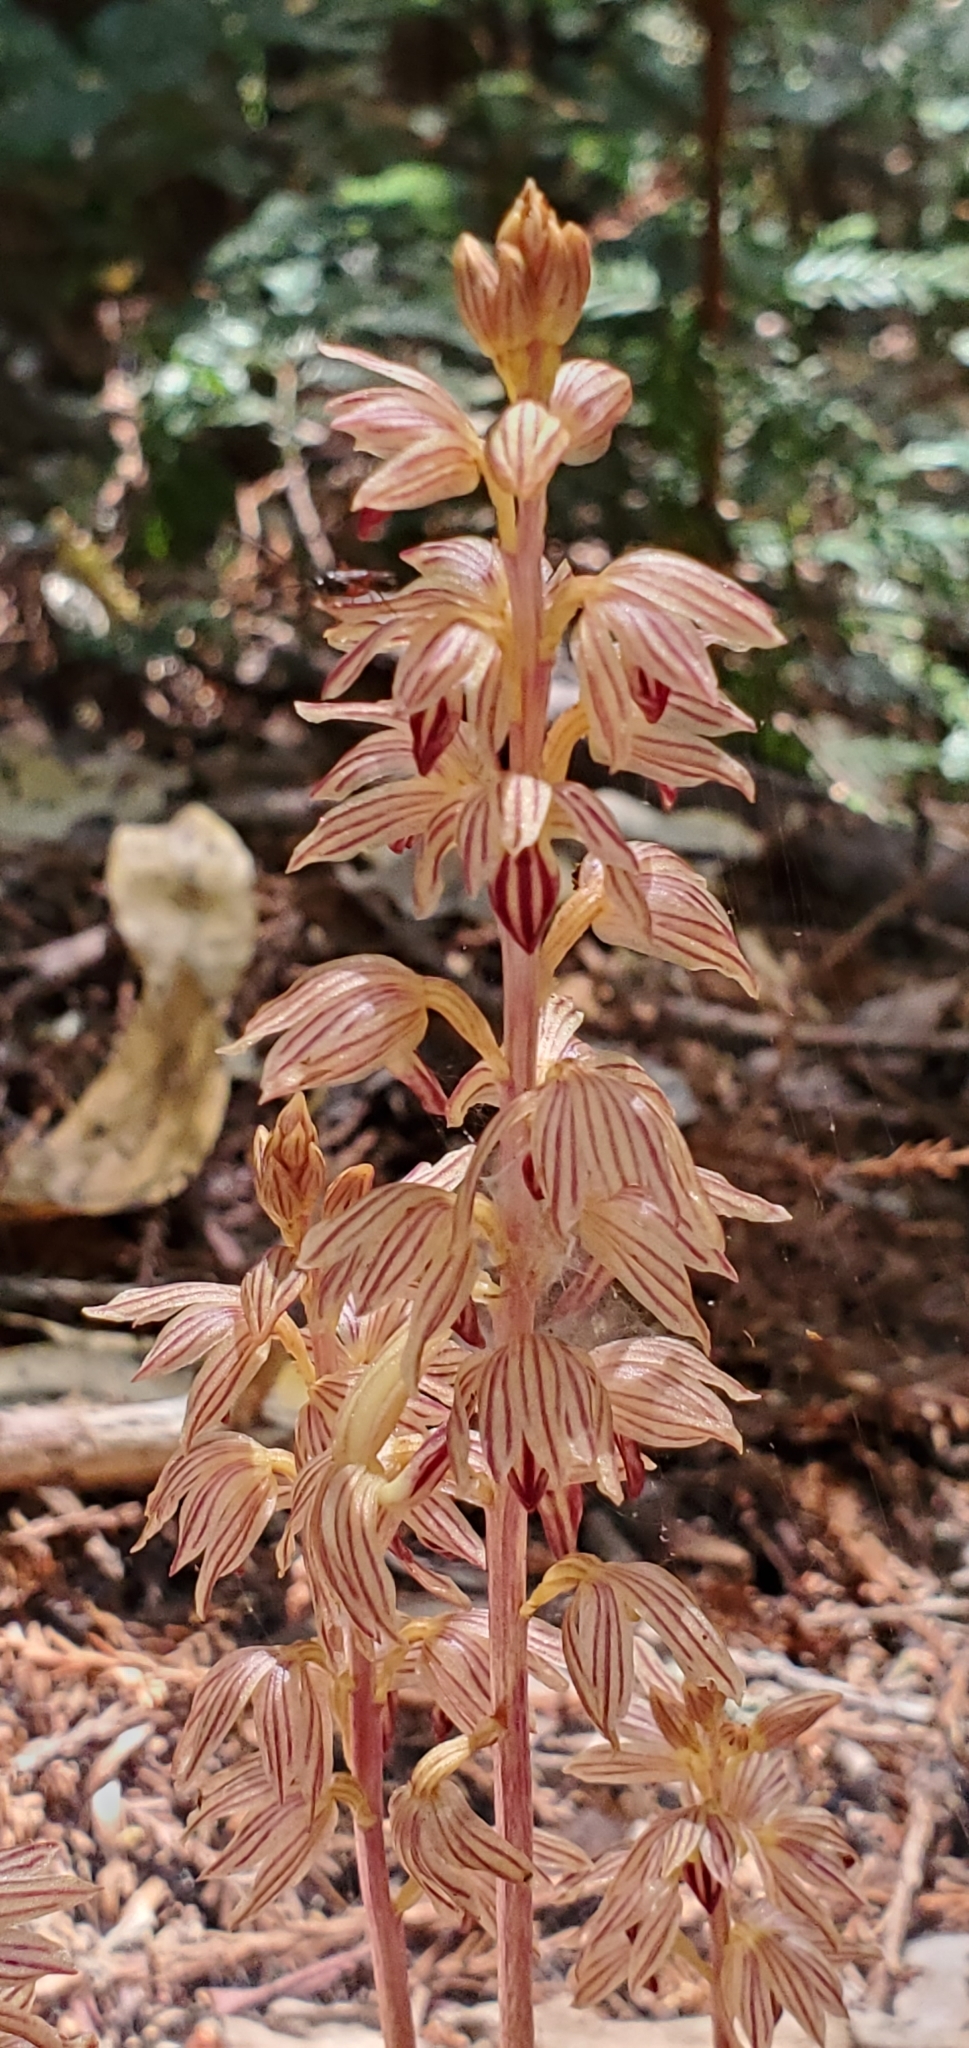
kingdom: Plantae
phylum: Tracheophyta
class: Liliopsida
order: Asparagales
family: Orchidaceae
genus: Corallorhiza
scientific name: Corallorhiza striata
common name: Hooded coralroot
